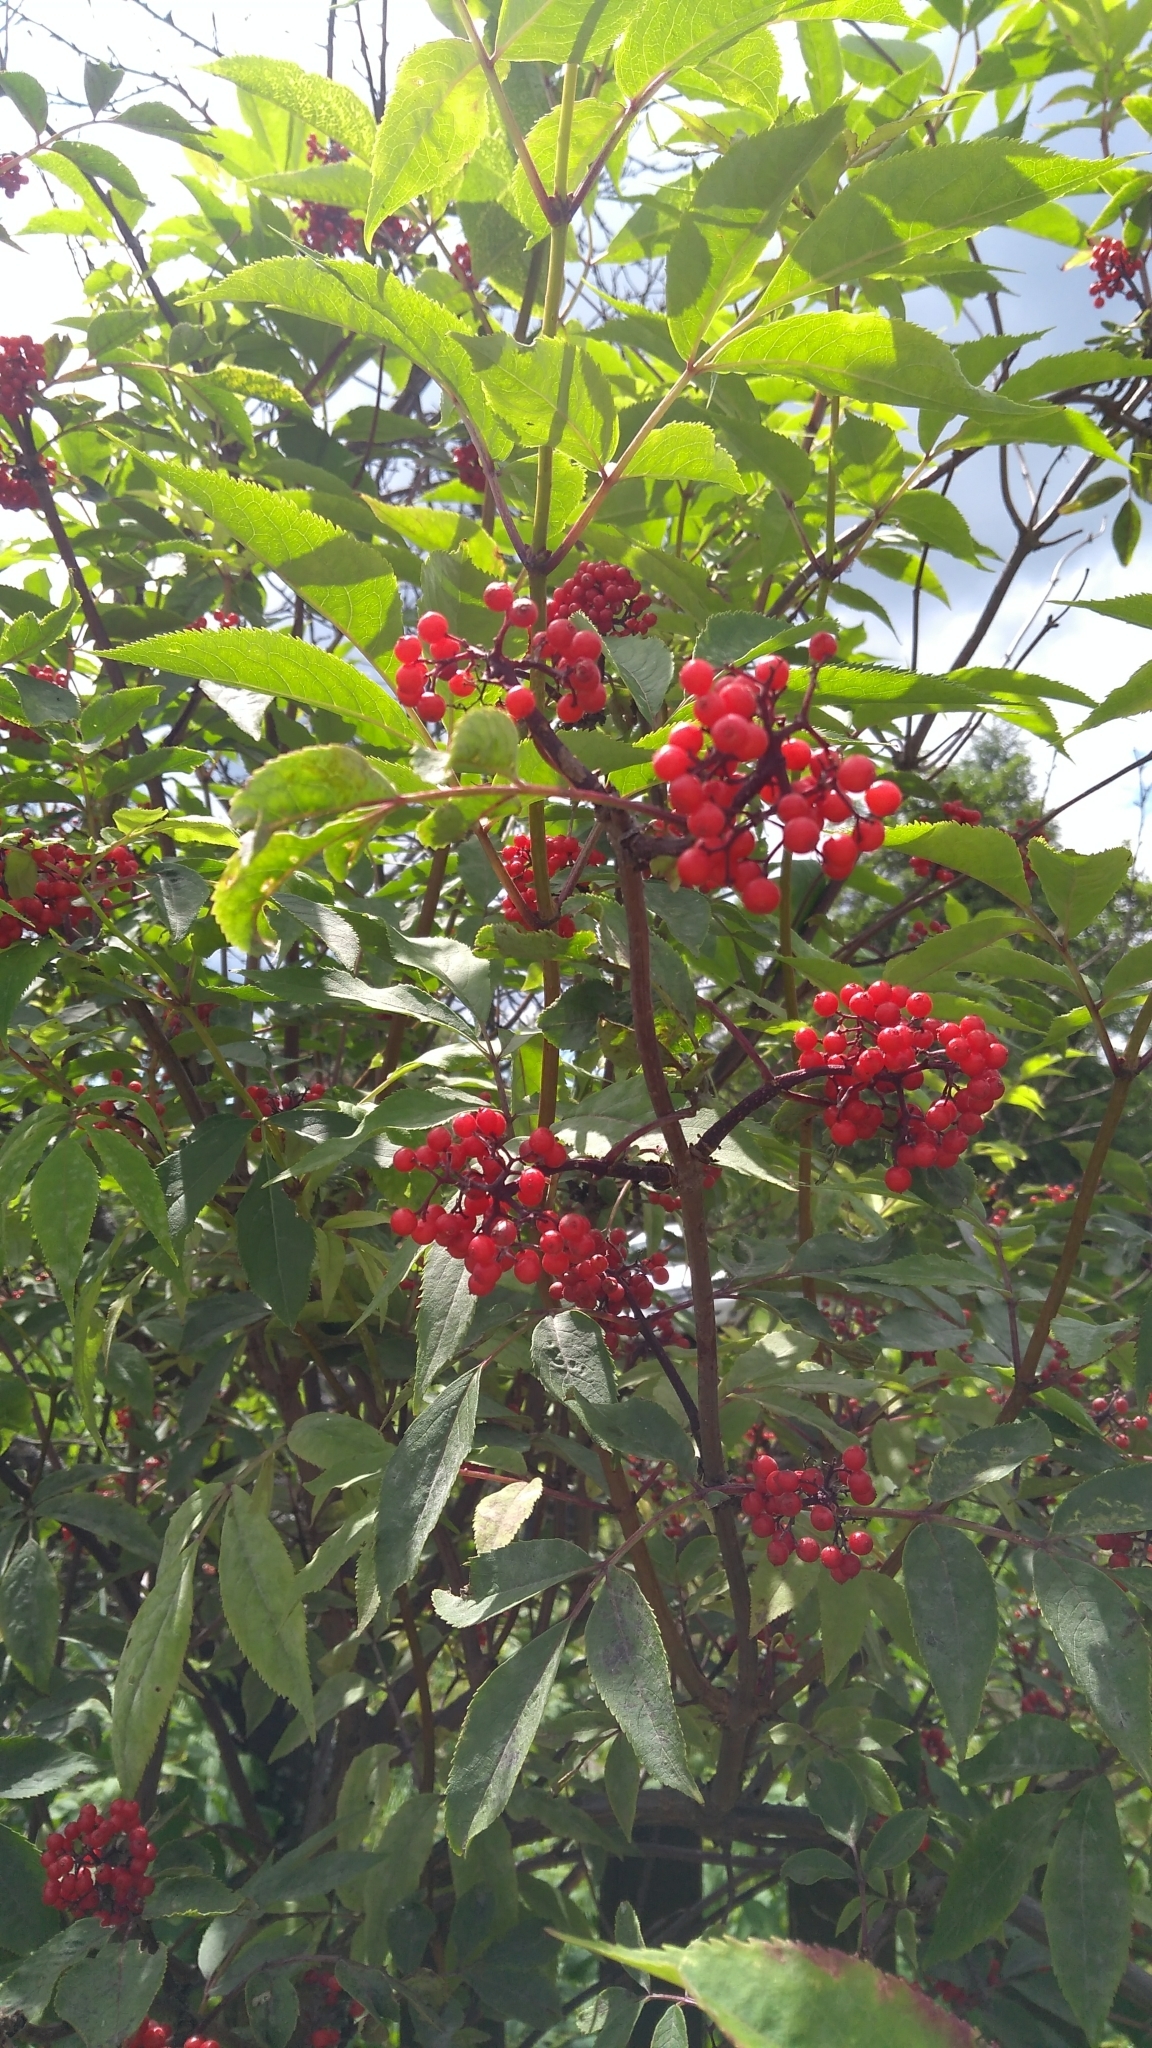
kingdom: Plantae
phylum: Tracheophyta
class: Magnoliopsida
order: Dipsacales
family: Viburnaceae
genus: Sambucus
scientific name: Sambucus racemosa
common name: Red-berried elder
